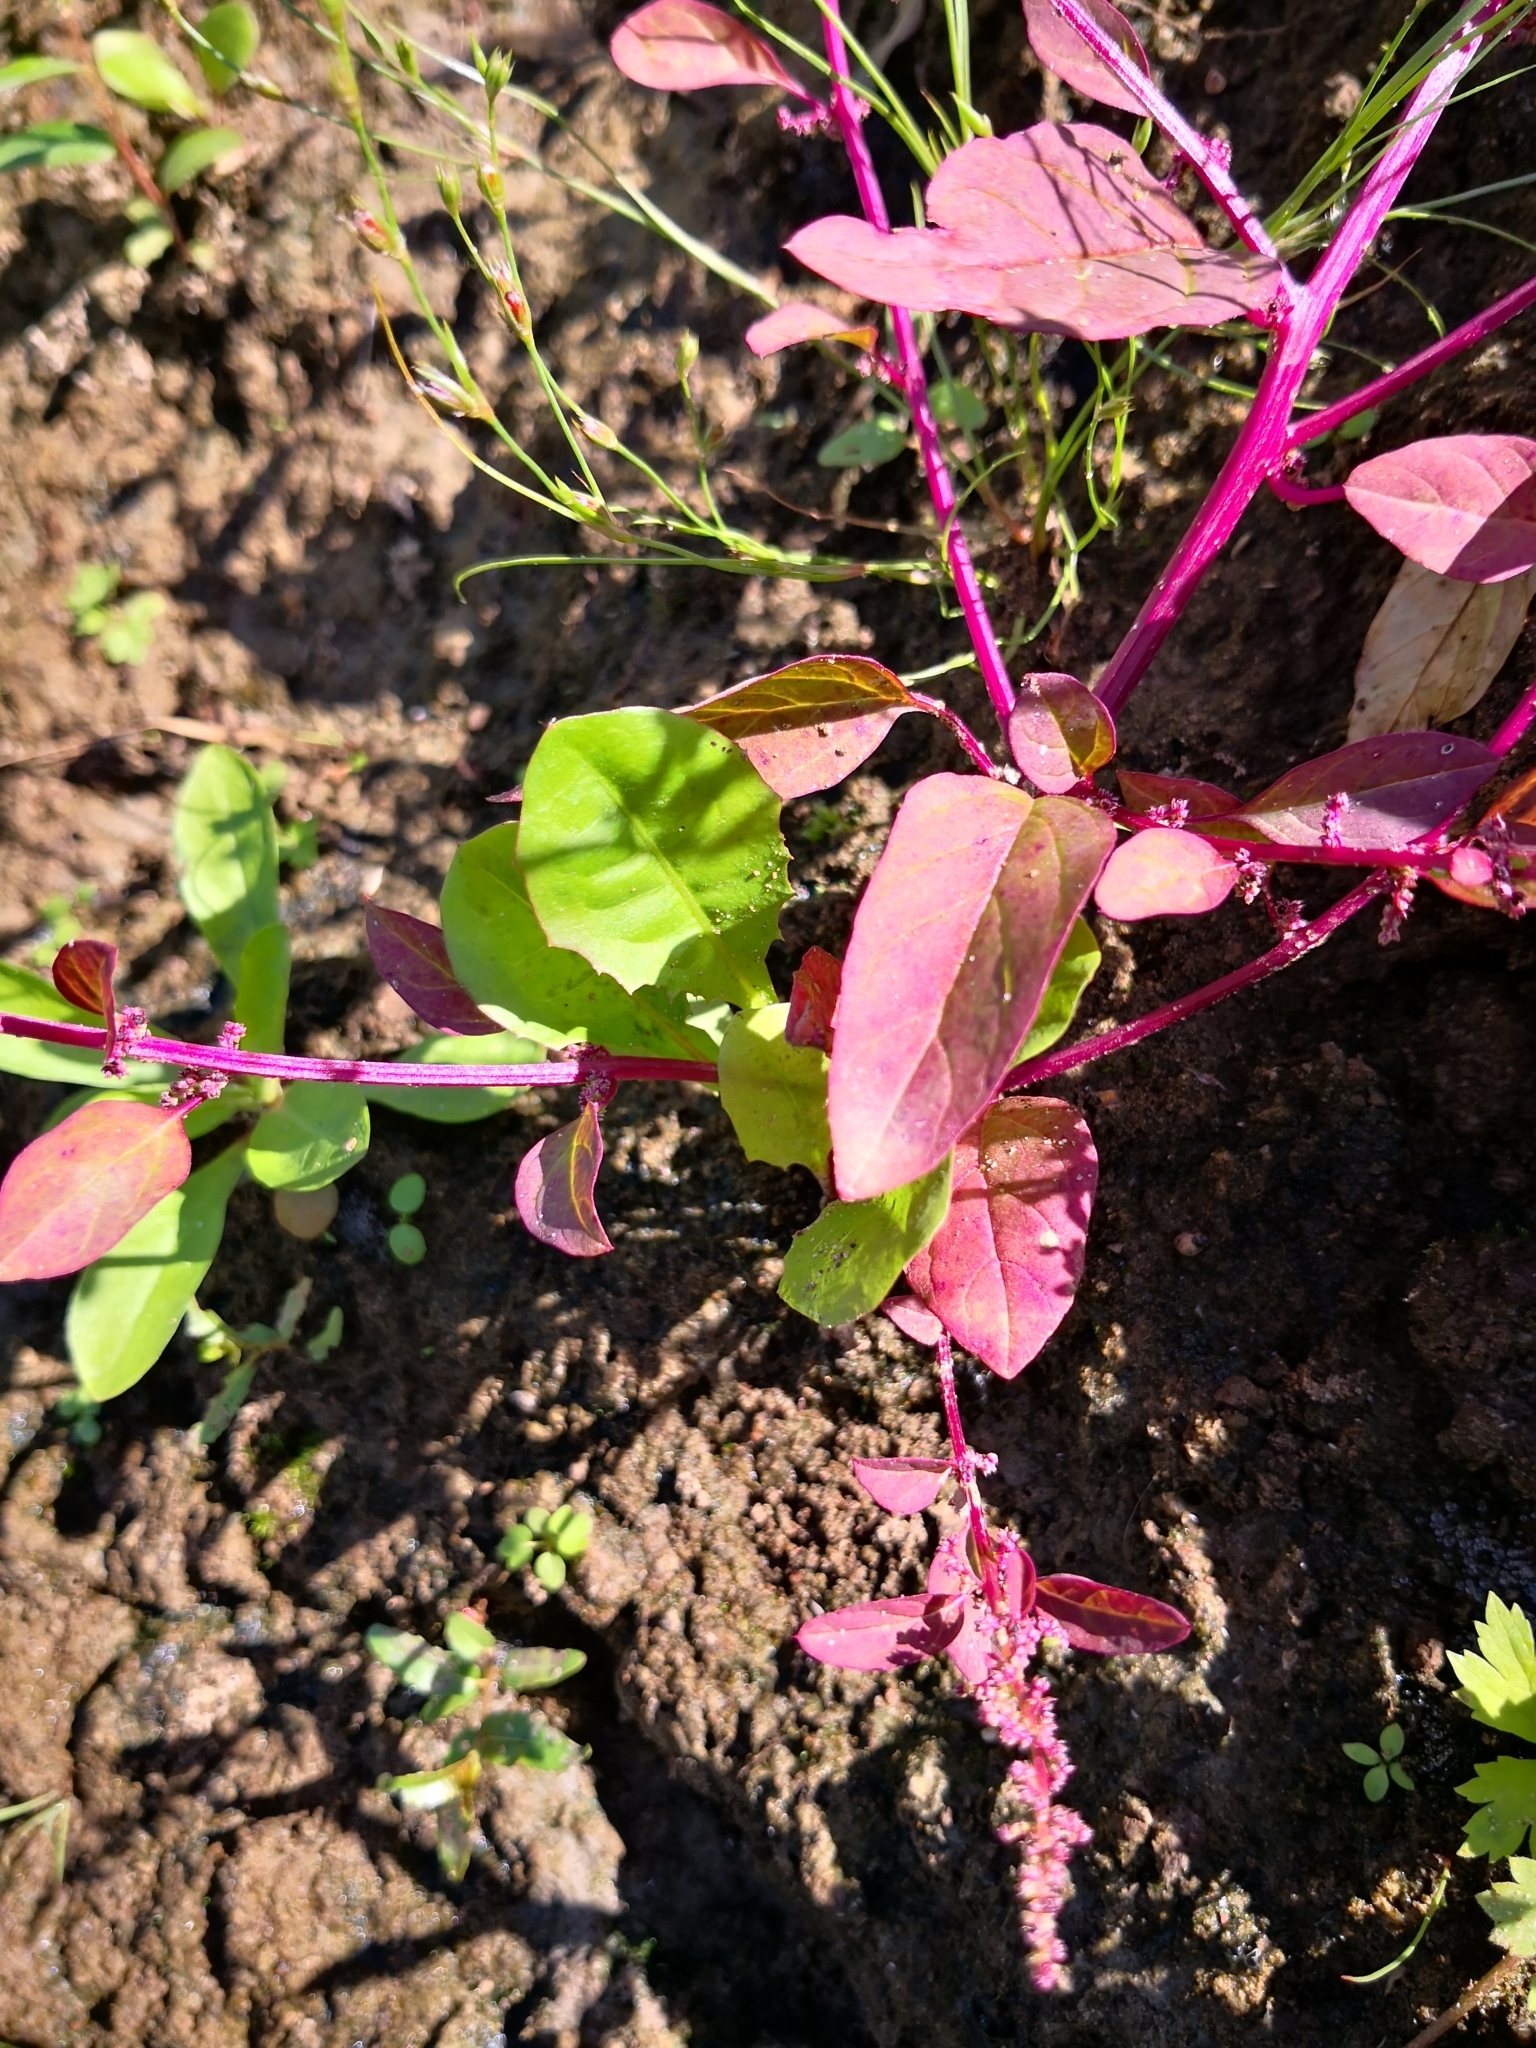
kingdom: Plantae
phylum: Tracheophyta
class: Magnoliopsida
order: Caryophyllales
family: Amaranthaceae
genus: Lipandra
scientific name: Lipandra polysperma
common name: Many-seed goosefoot
